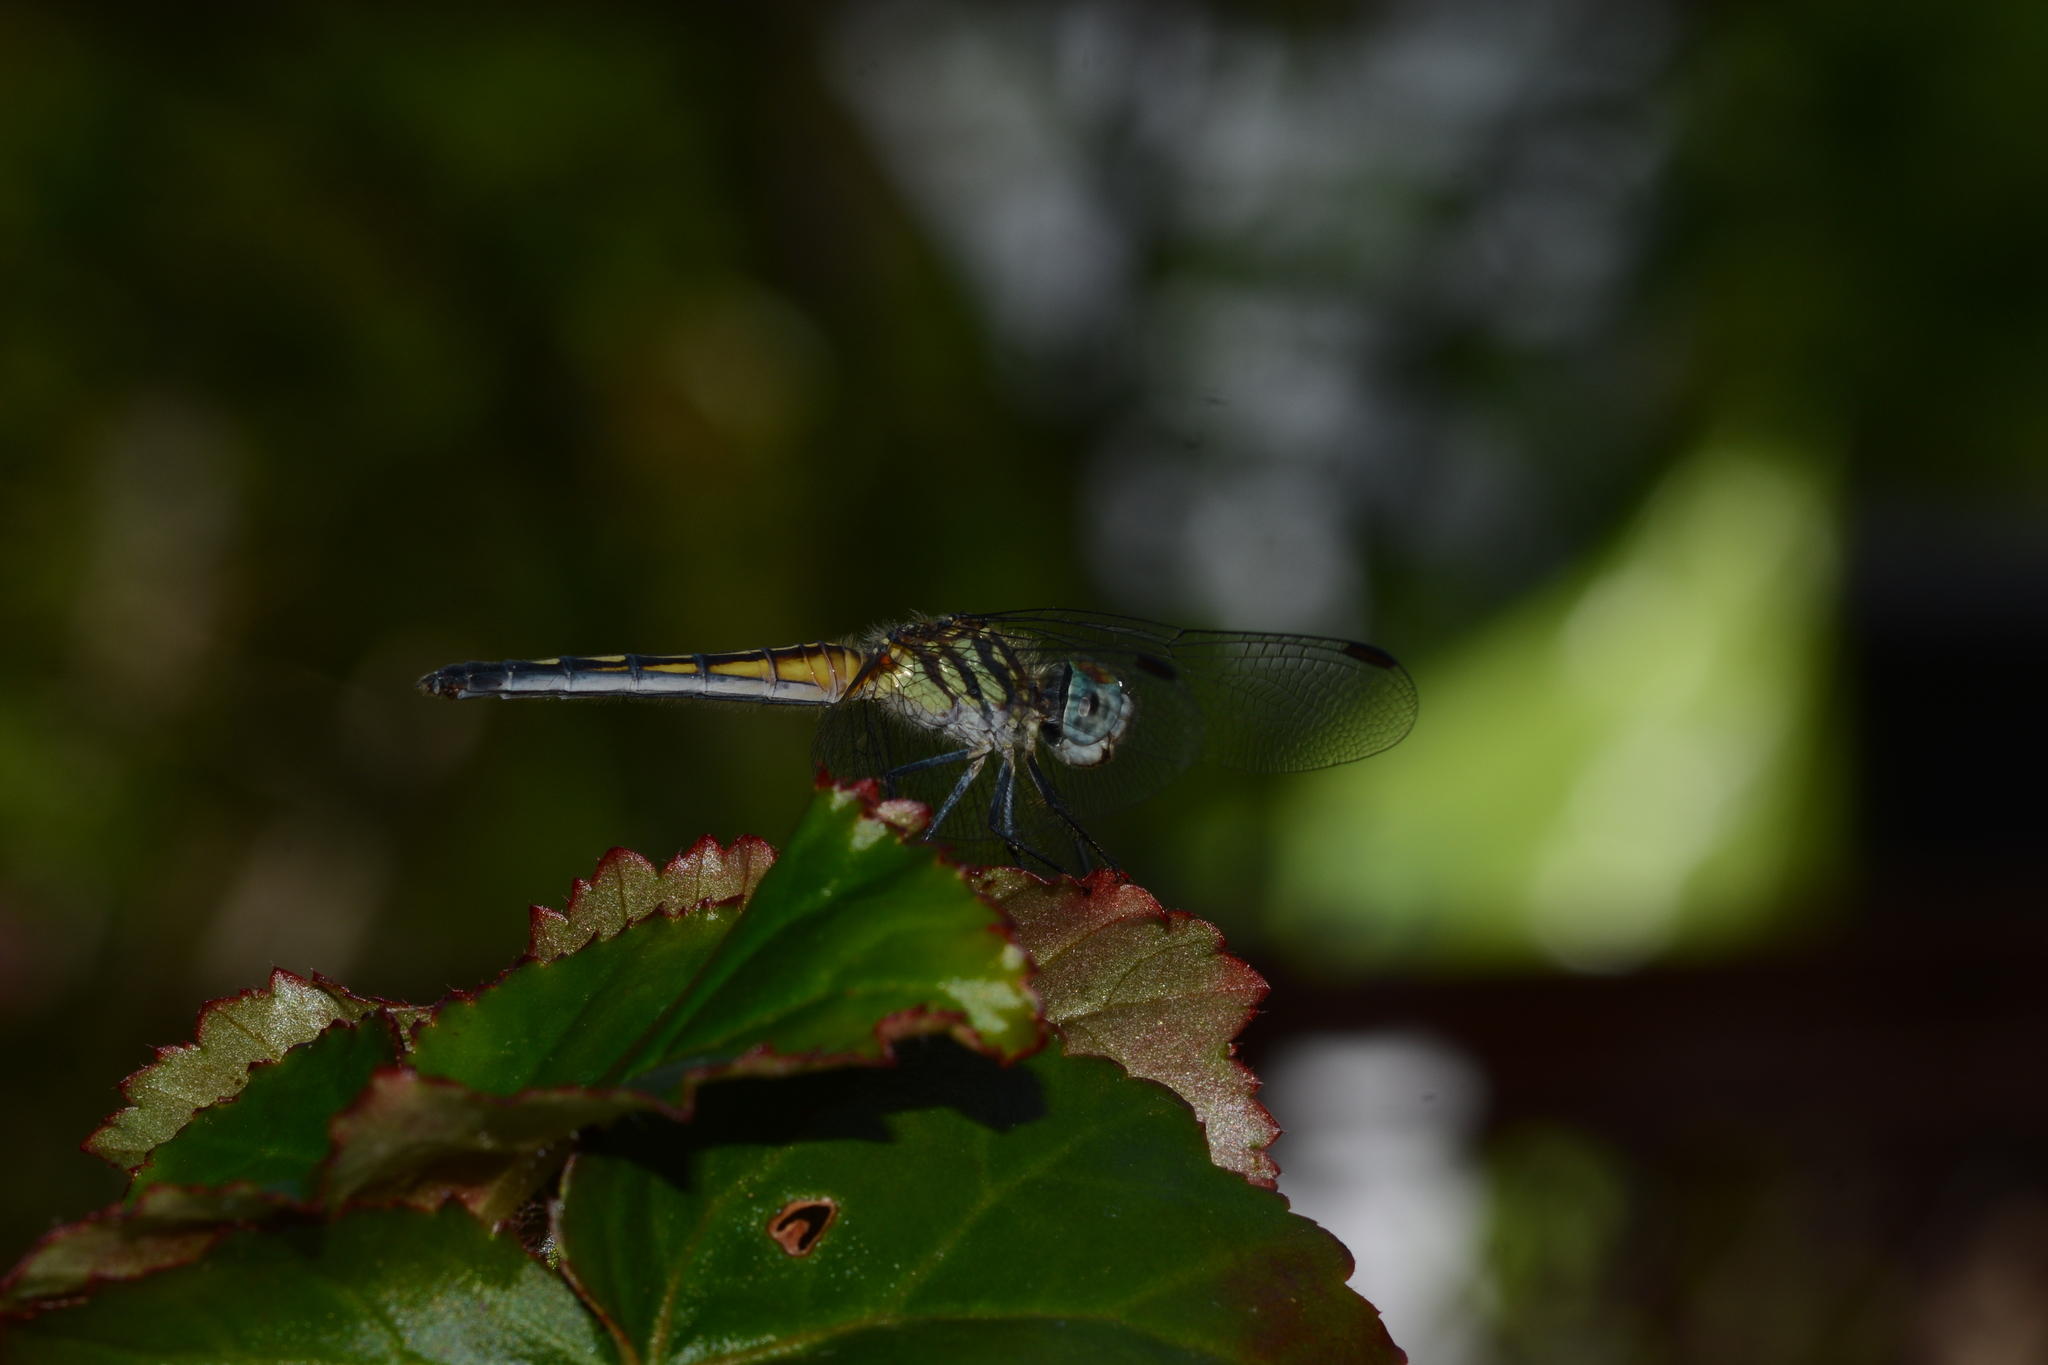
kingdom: Animalia
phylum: Arthropoda
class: Insecta
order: Odonata
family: Libellulidae
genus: Pachydiplax
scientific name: Pachydiplax longipennis
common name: Blue dasher
